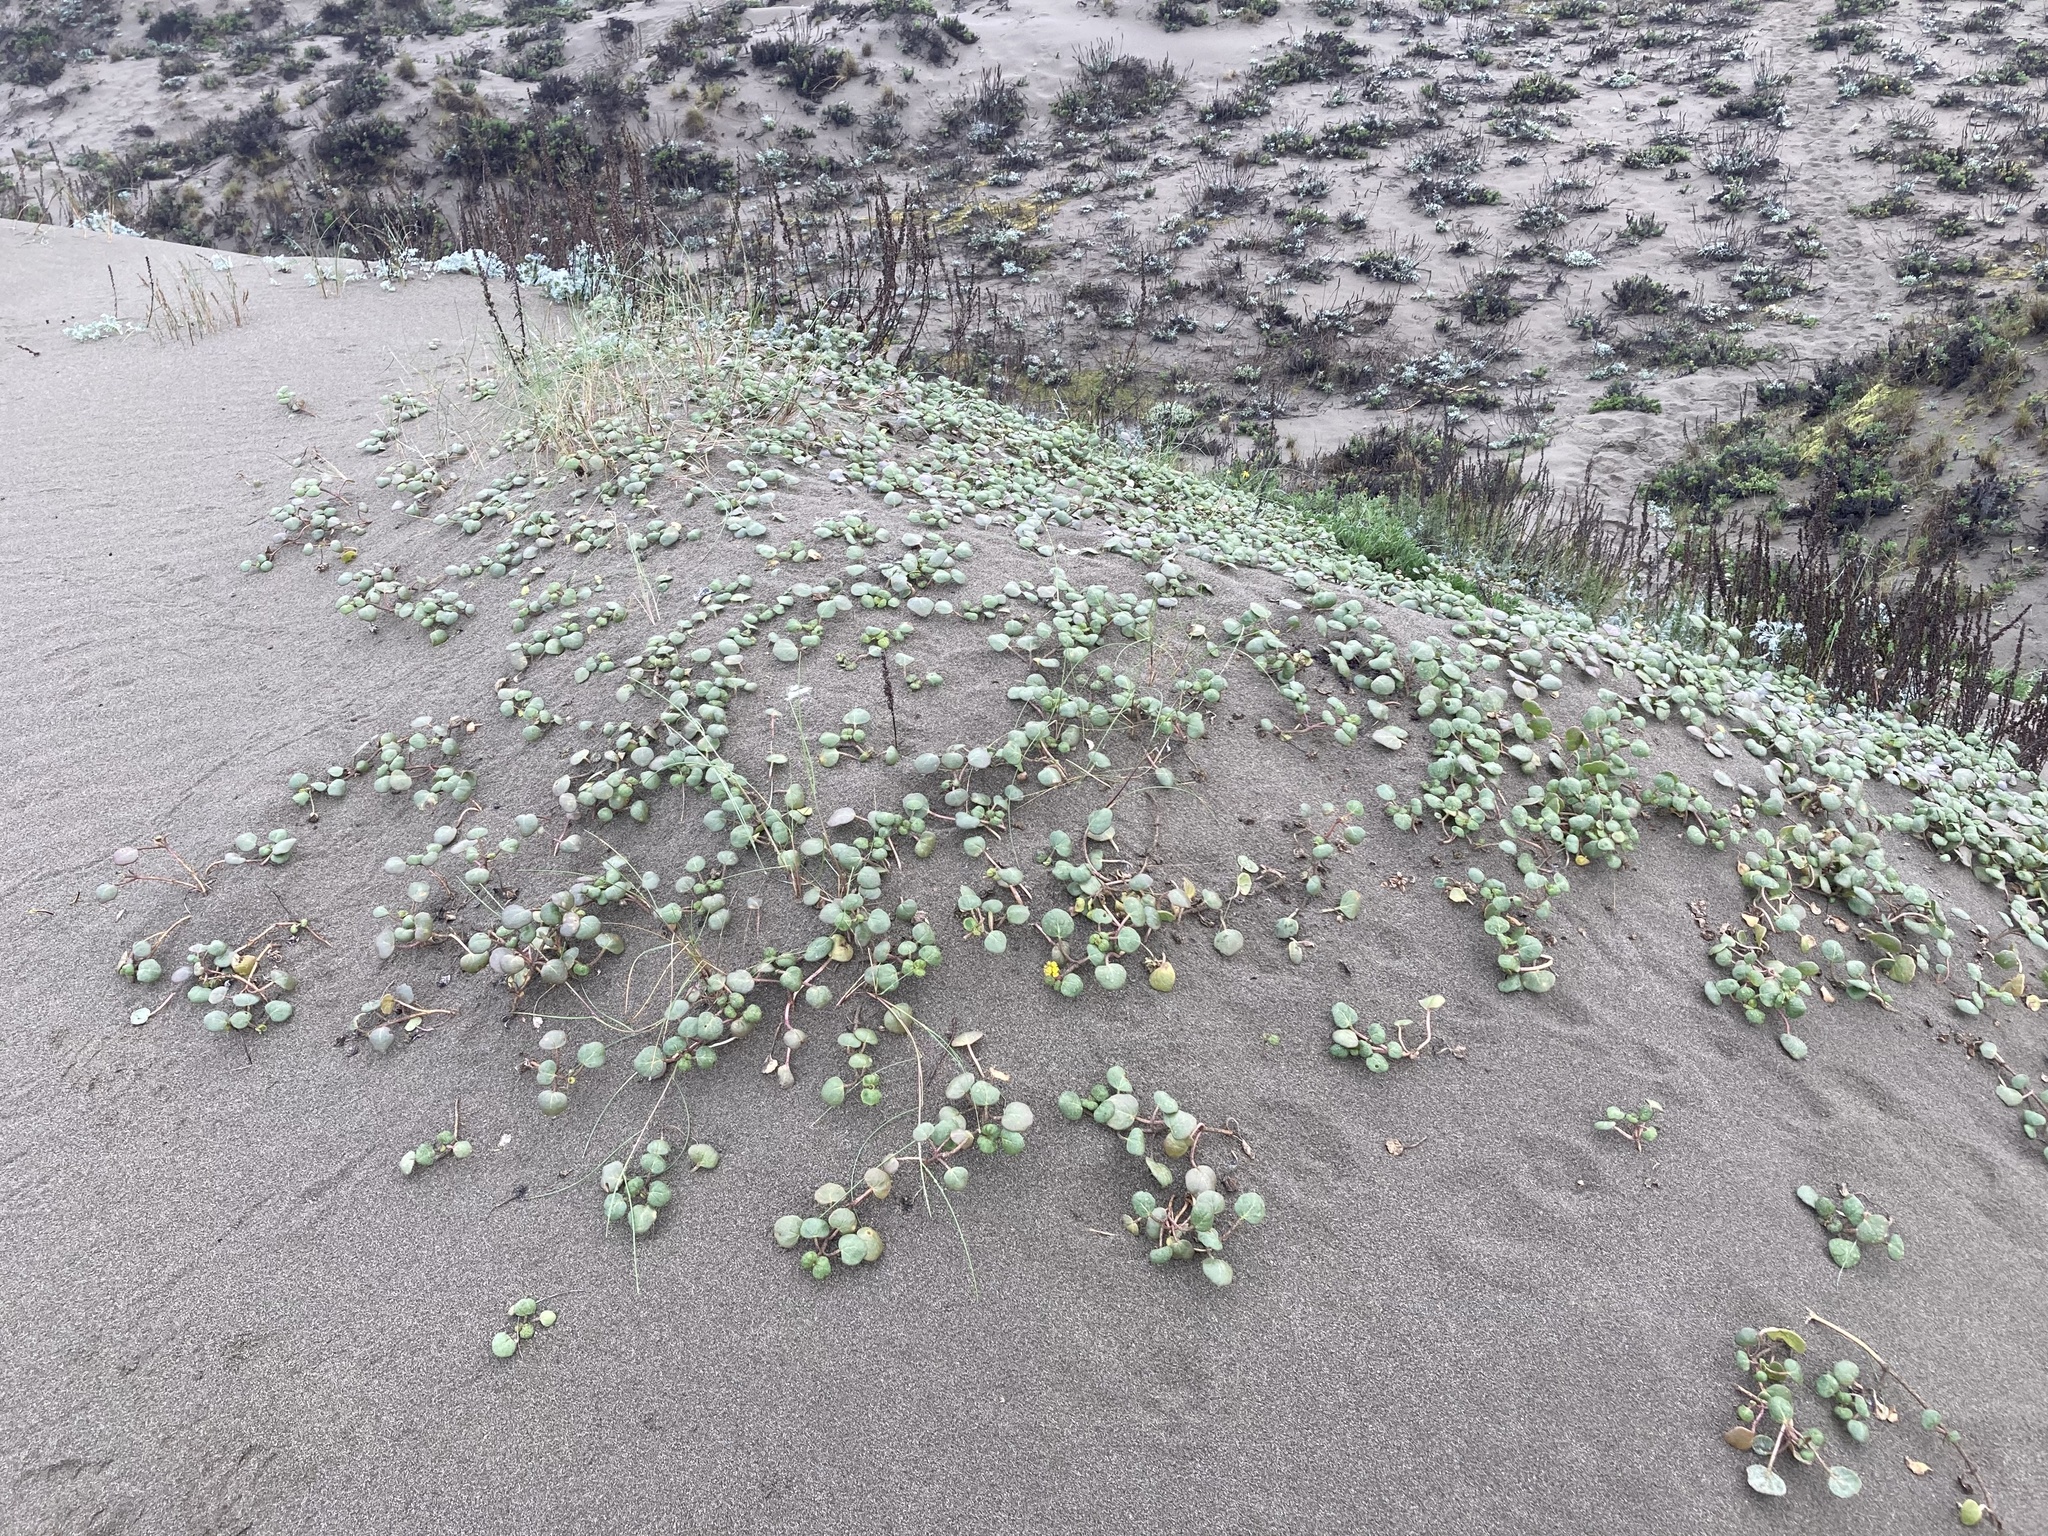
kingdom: Plantae
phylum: Tracheophyta
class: Magnoliopsida
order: Caryophyllales
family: Nyctaginaceae
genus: Abronia
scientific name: Abronia latifolia
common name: Yellow sand-verbena
